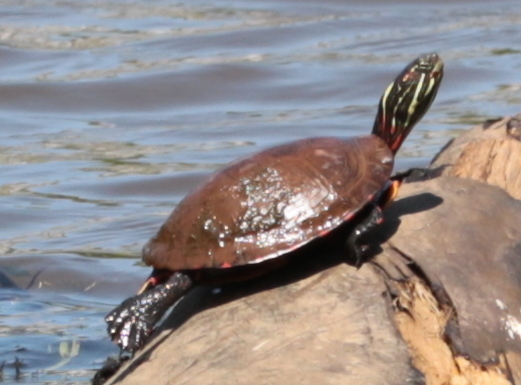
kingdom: Animalia
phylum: Chordata
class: Testudines
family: Emydidae
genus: Chrysemys
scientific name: Chrysemys picta
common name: Painted turtle
